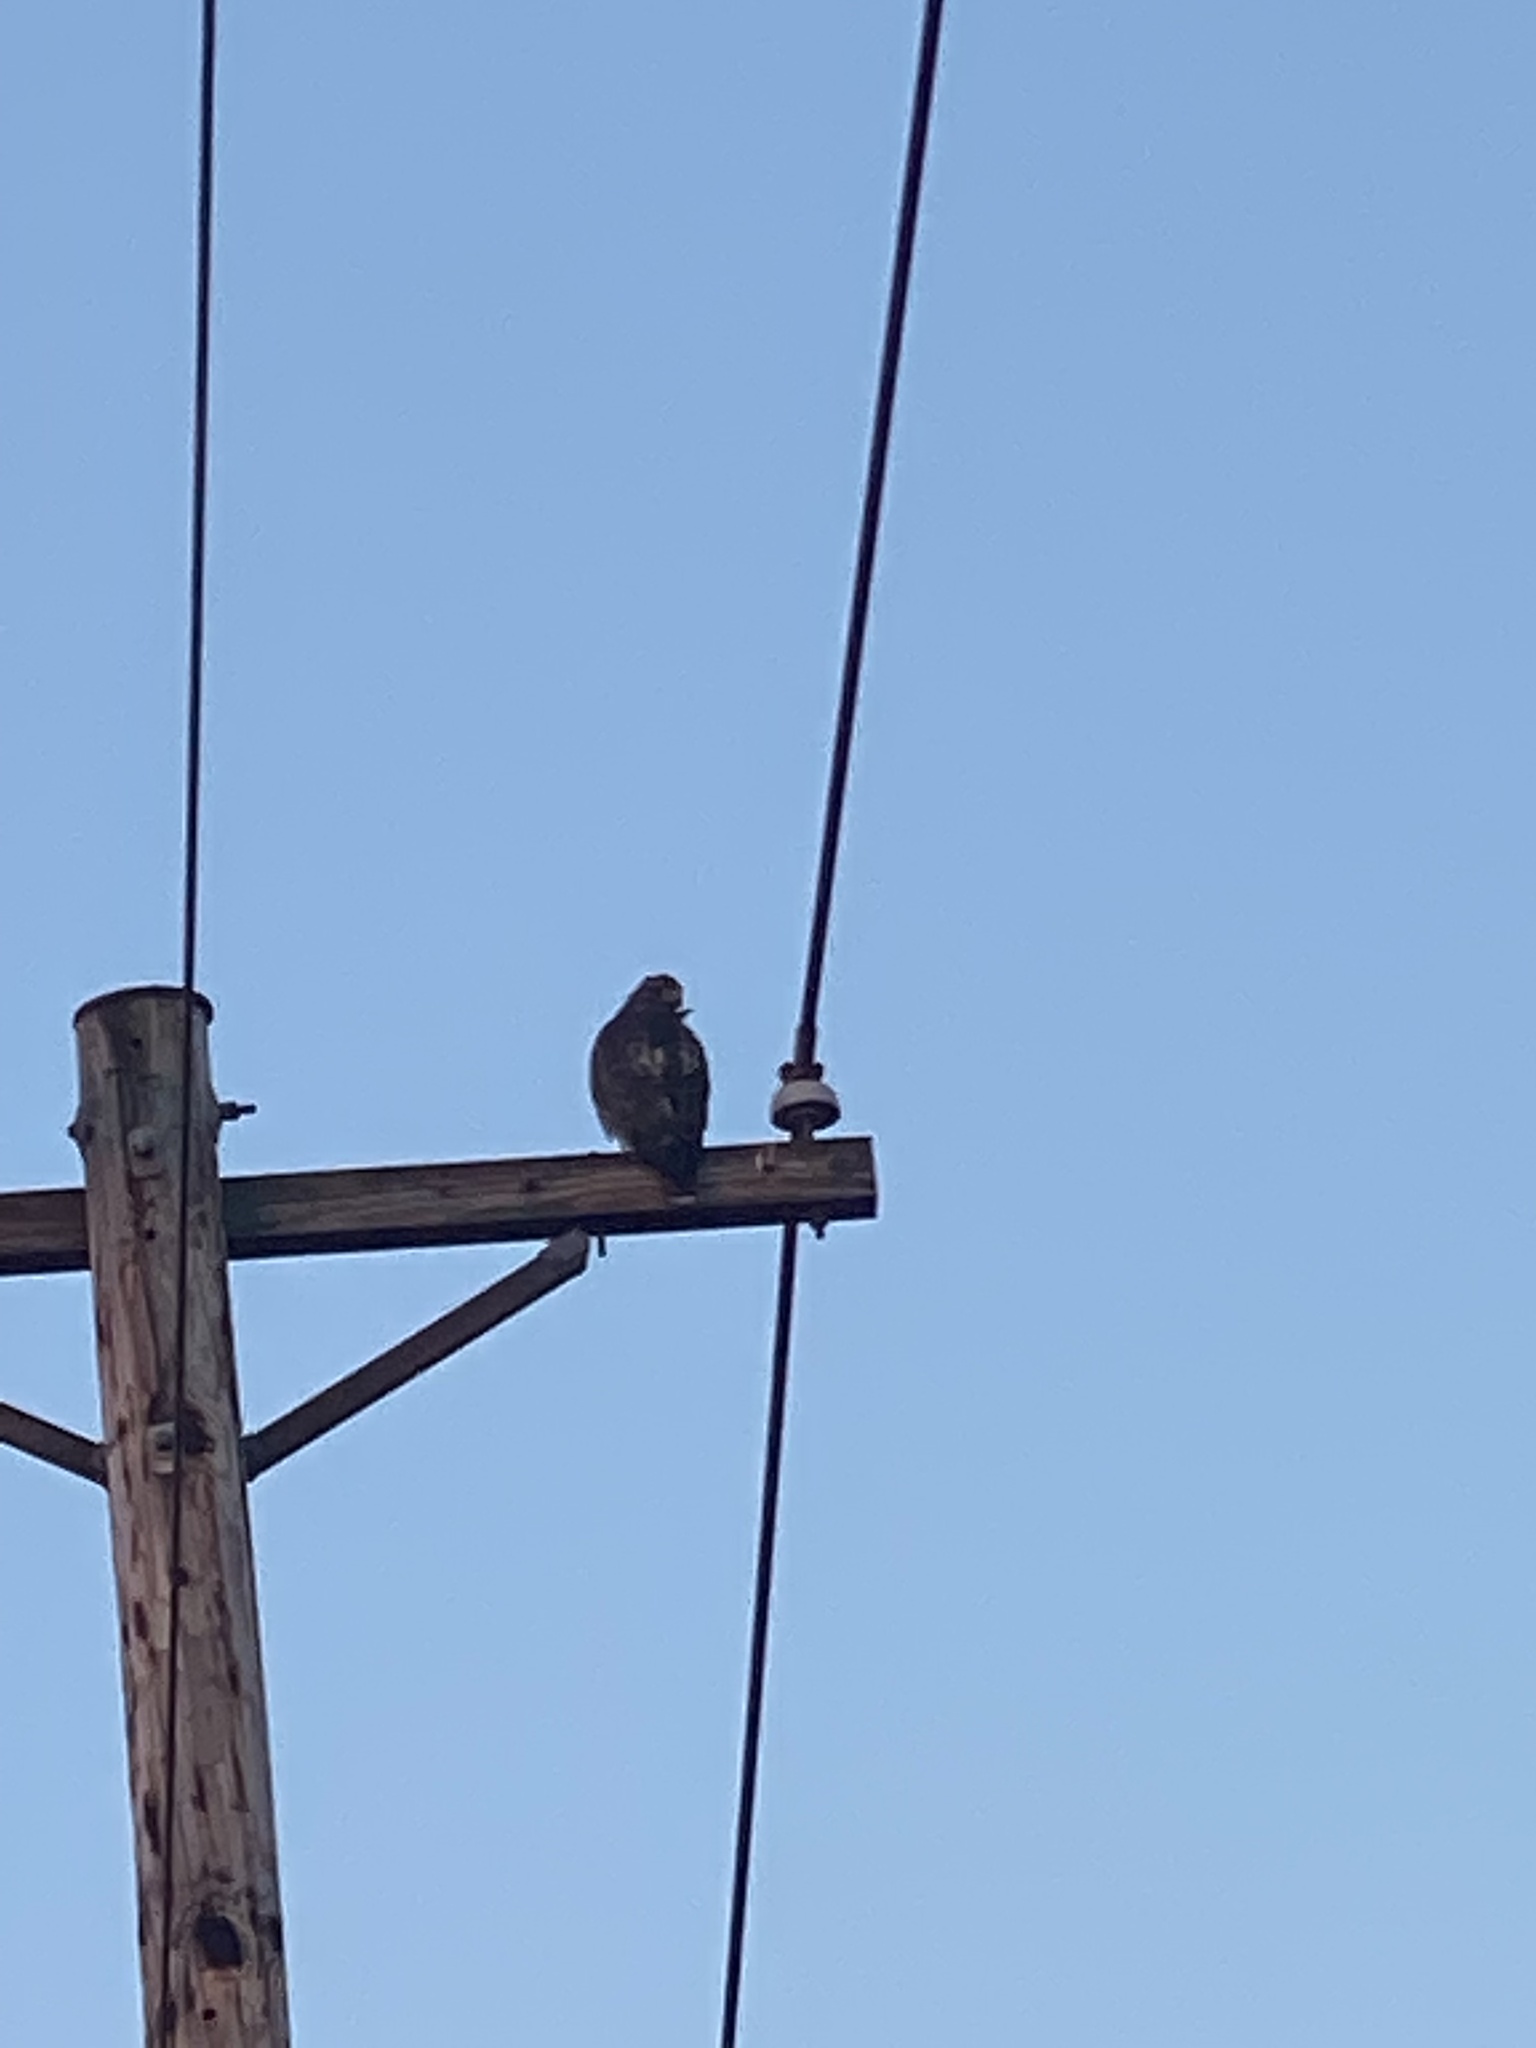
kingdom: Animalia
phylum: Chordata
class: Aves
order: Accipitriformes
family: Accipitridae
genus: Buteo
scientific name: Buteo jamaicensis
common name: Red-tailed hawk
